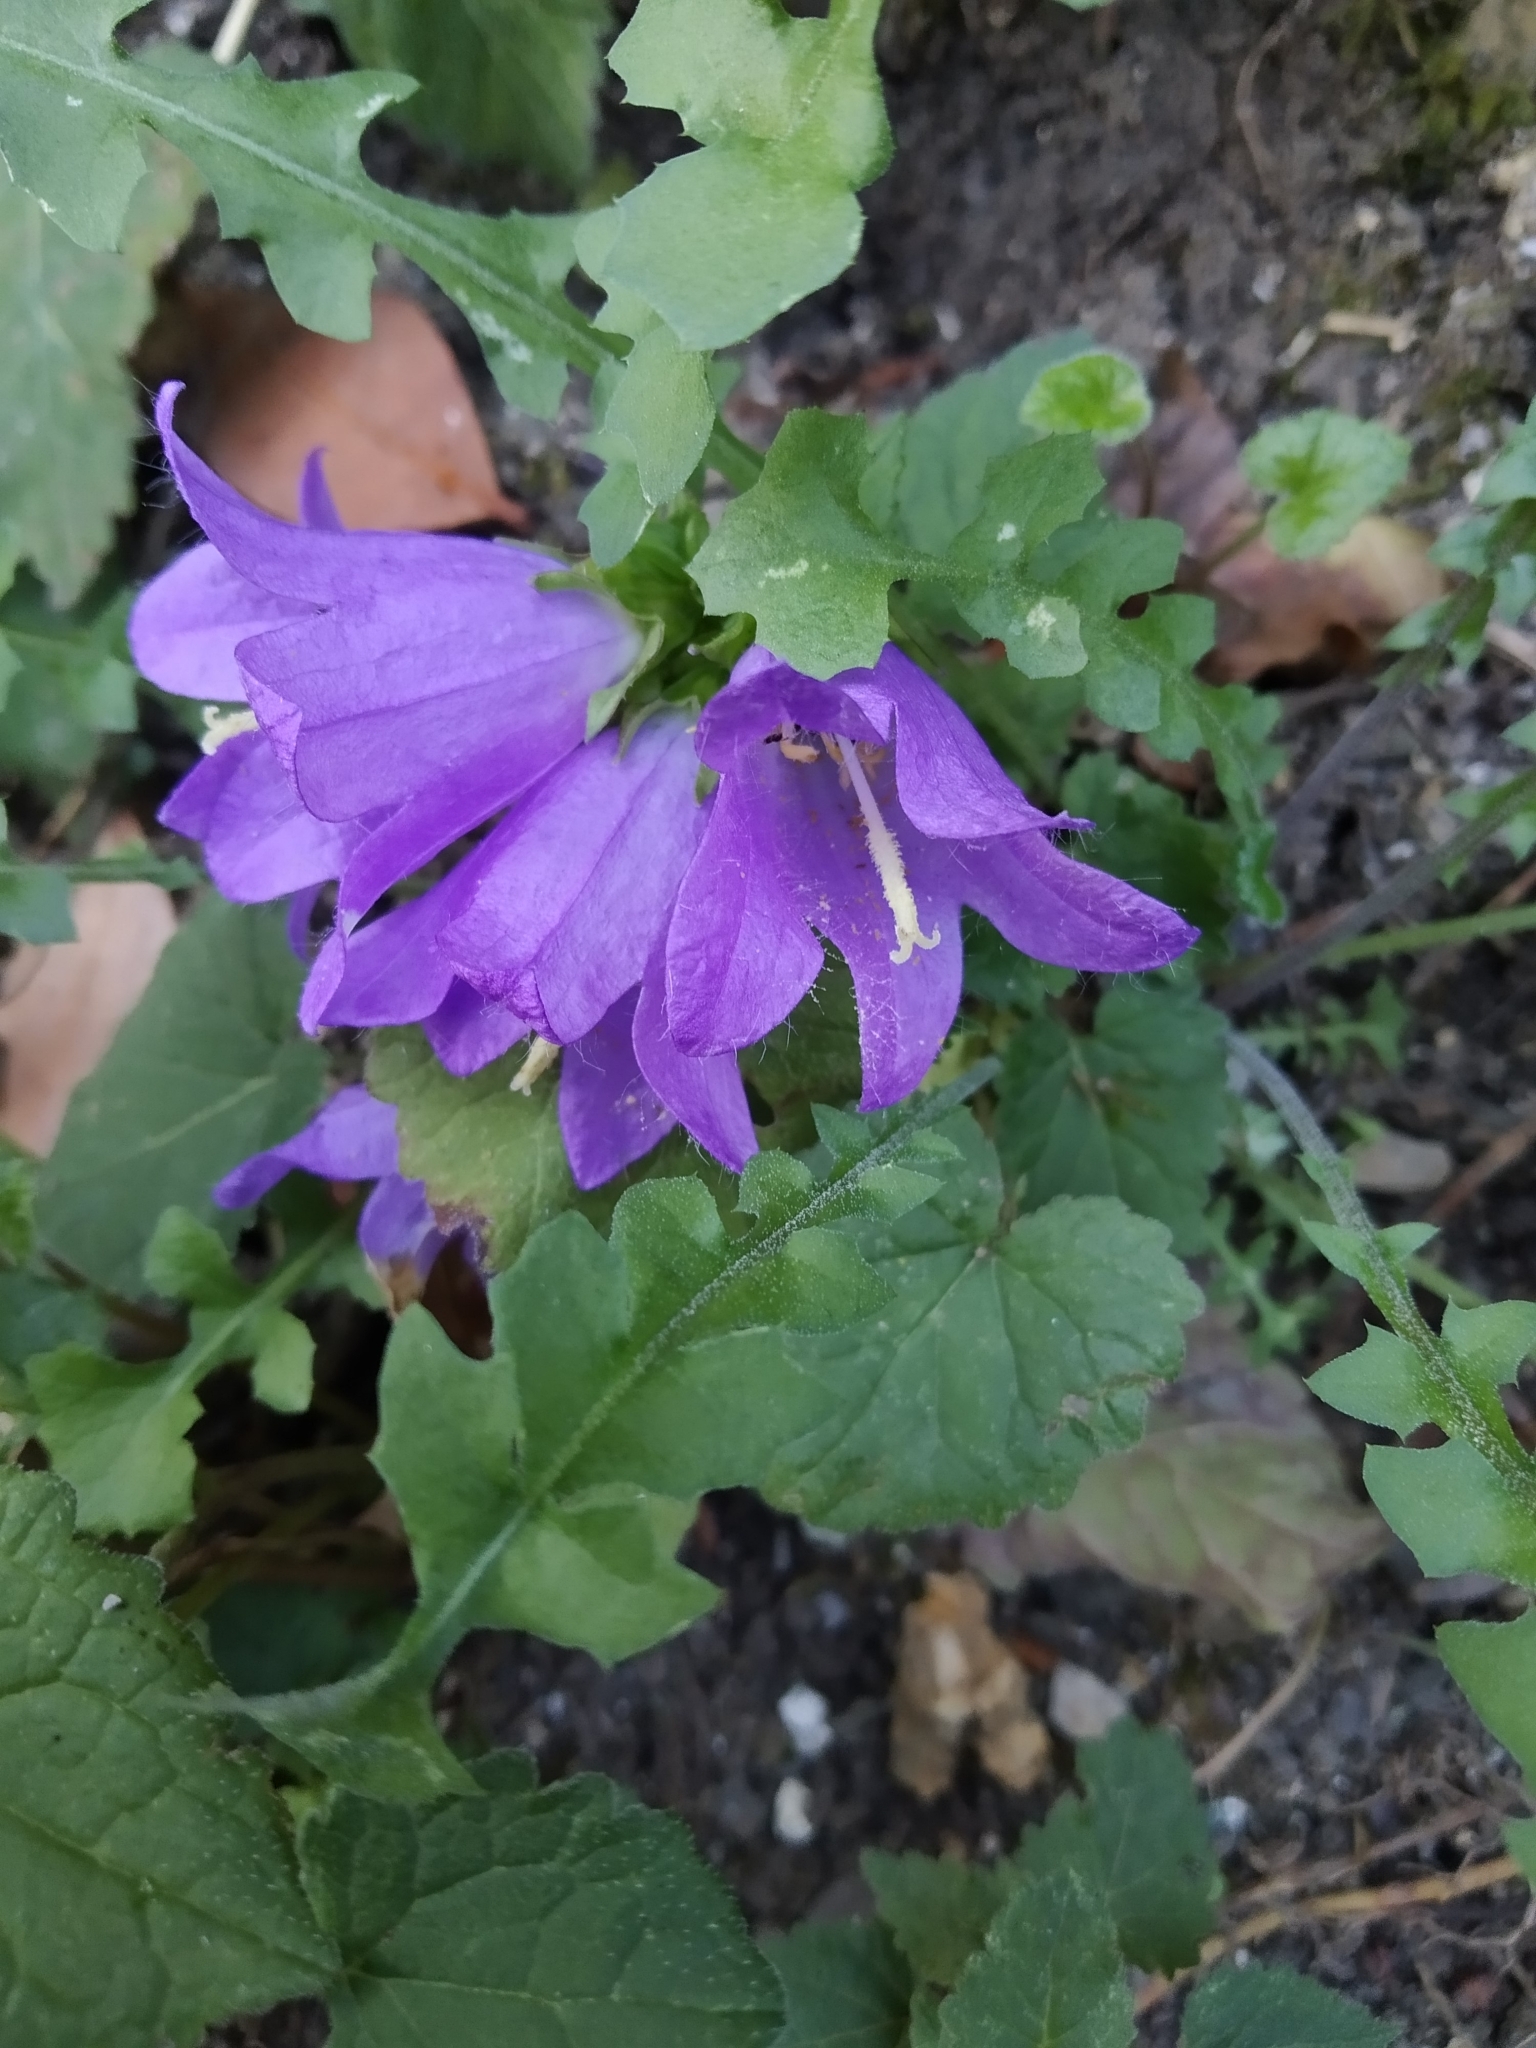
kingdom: Plantae
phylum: Tracheophyta
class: Magnoliopsida
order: Asterales
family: Campanulaceae
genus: Campanula
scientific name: Campanula trachelium
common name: Nettle-leaved bellflower
